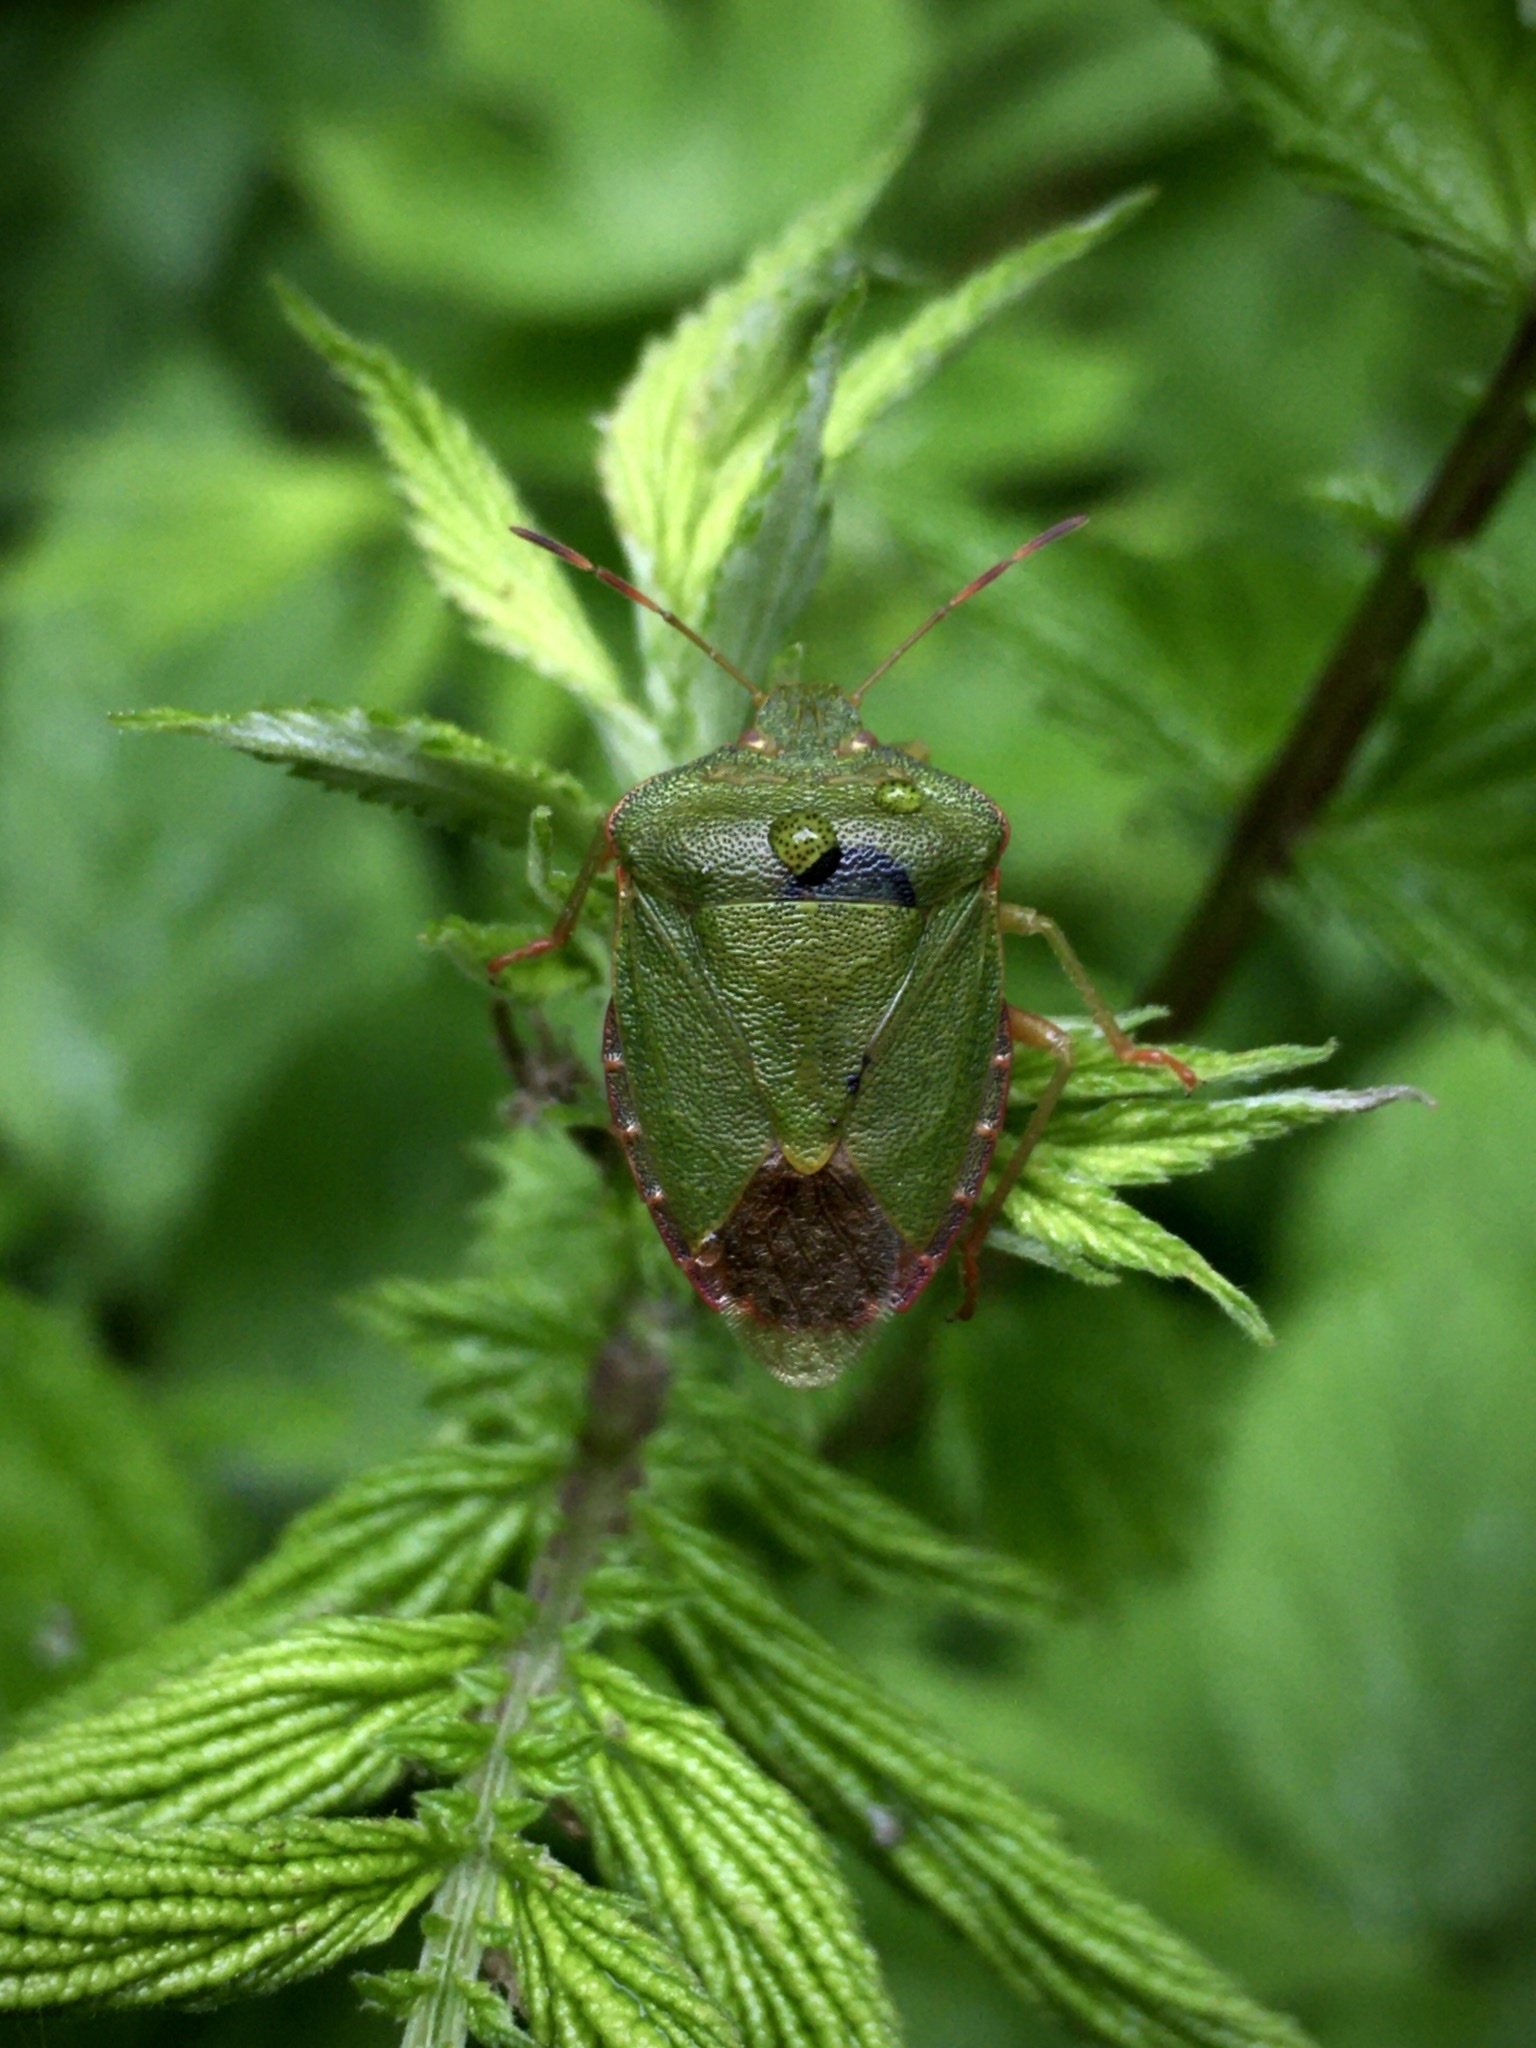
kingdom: Animalia
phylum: Arthropoda
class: Insecta
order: Hemiptera
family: Pentatomidae
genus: Palomena
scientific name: Palomena prasina
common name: Green shieldbug
